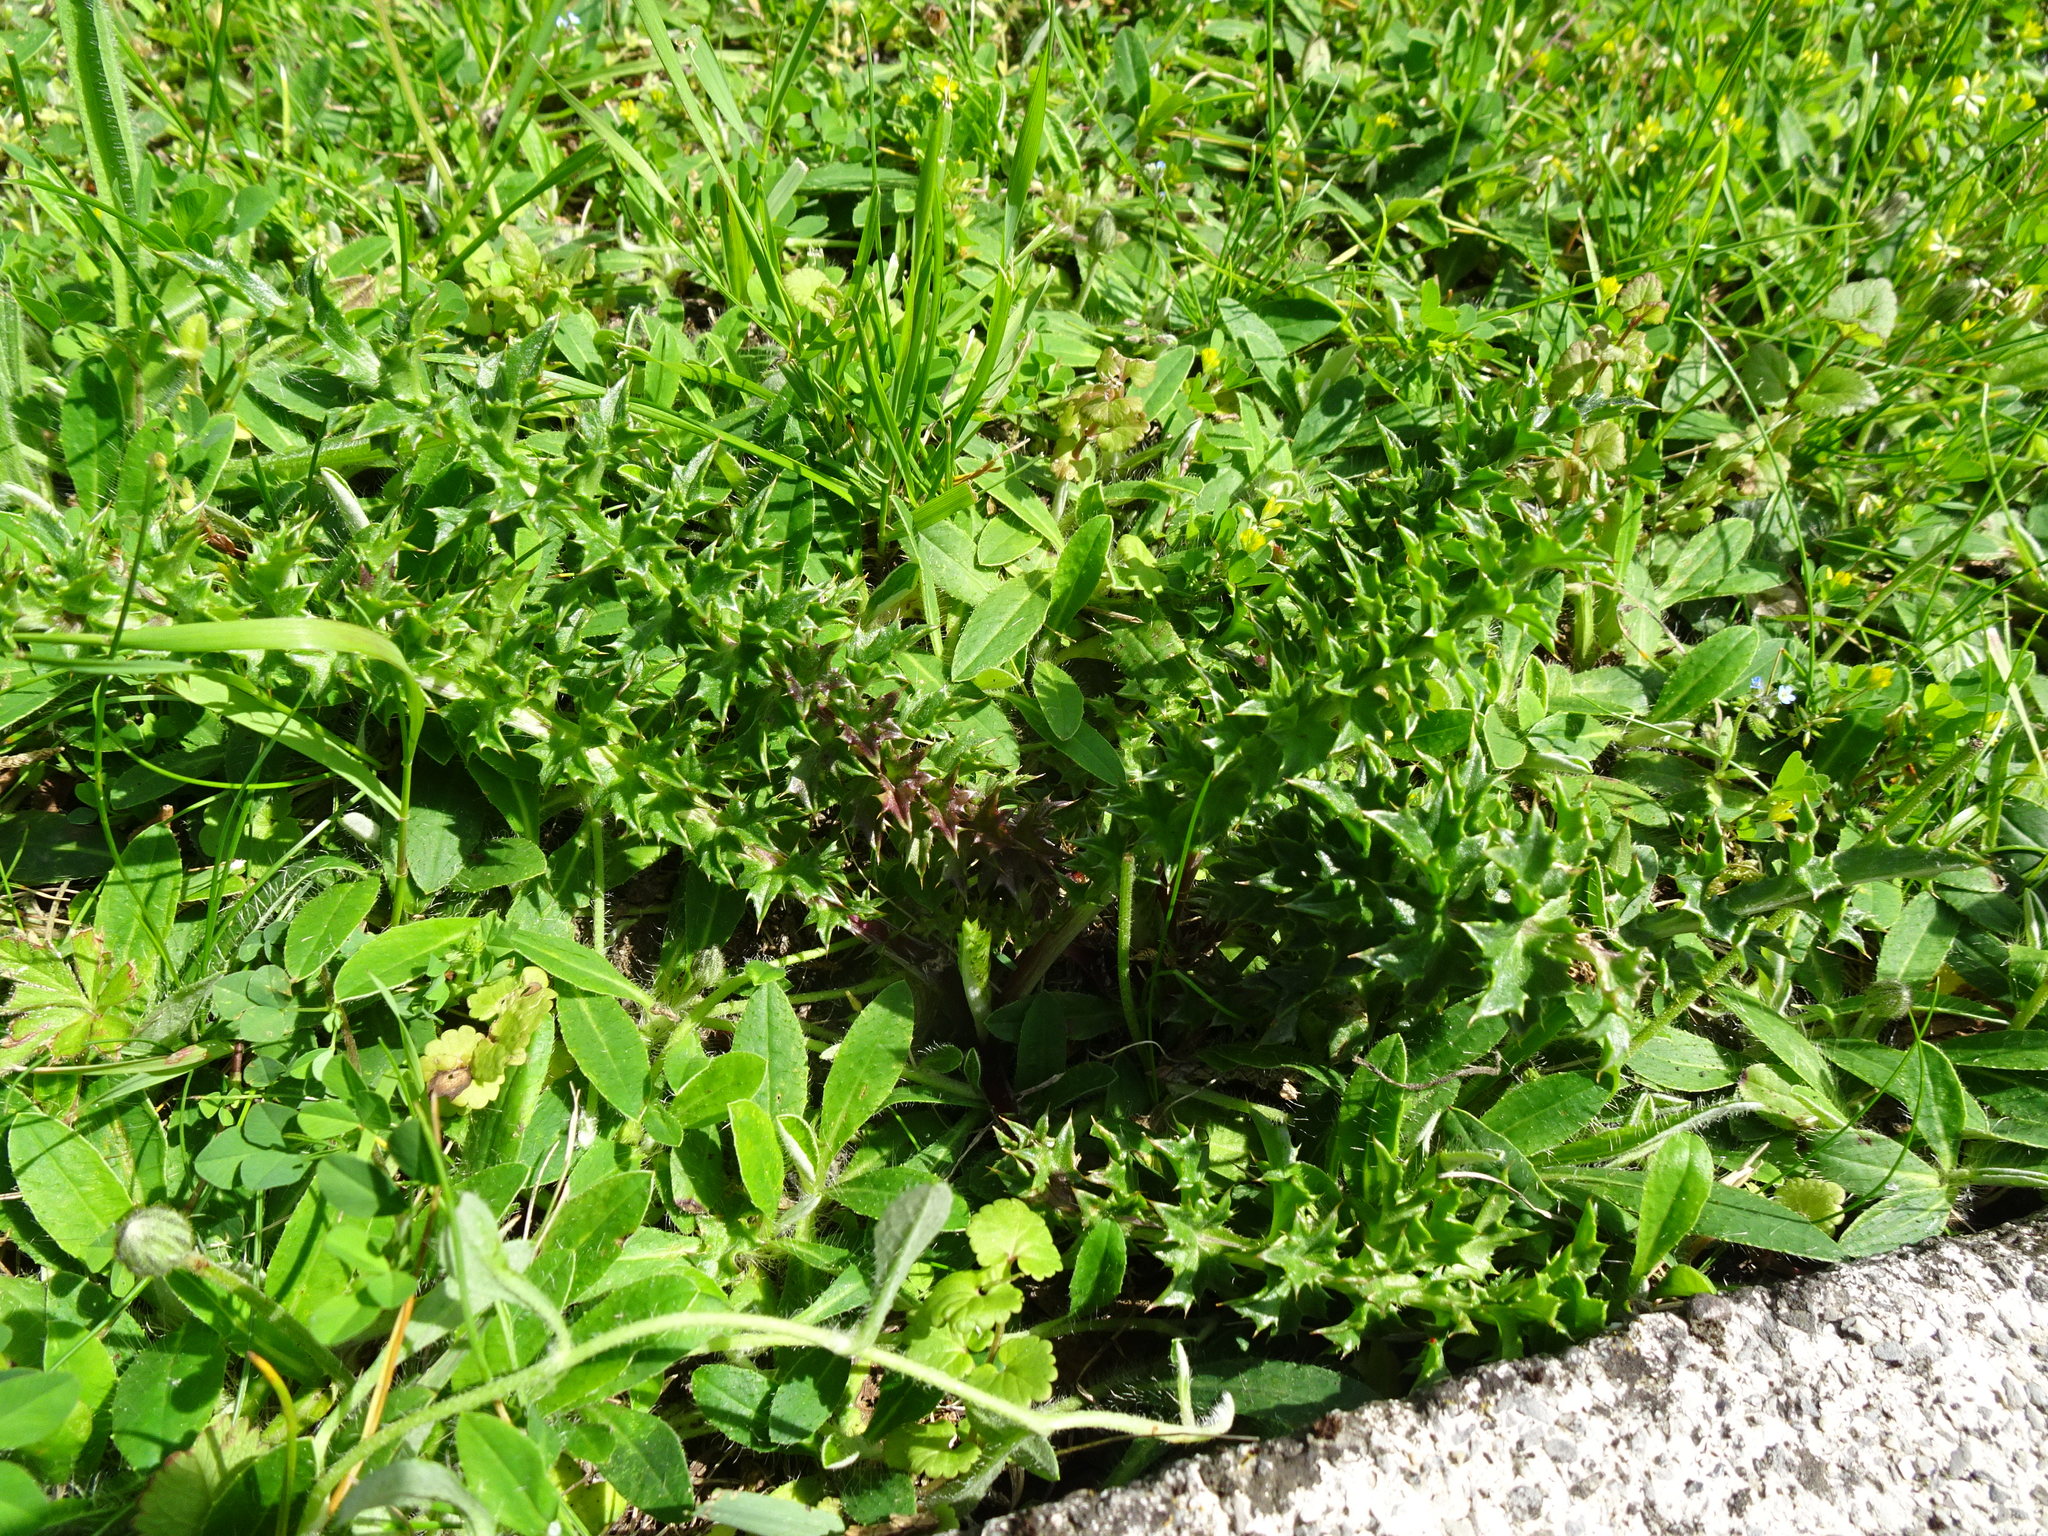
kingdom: Plantae
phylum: Tracheophyta
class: Magnoliopsida
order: Asterales
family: Asteraceae
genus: Carduus
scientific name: Carduus acanthoides
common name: Plumeless thistle
